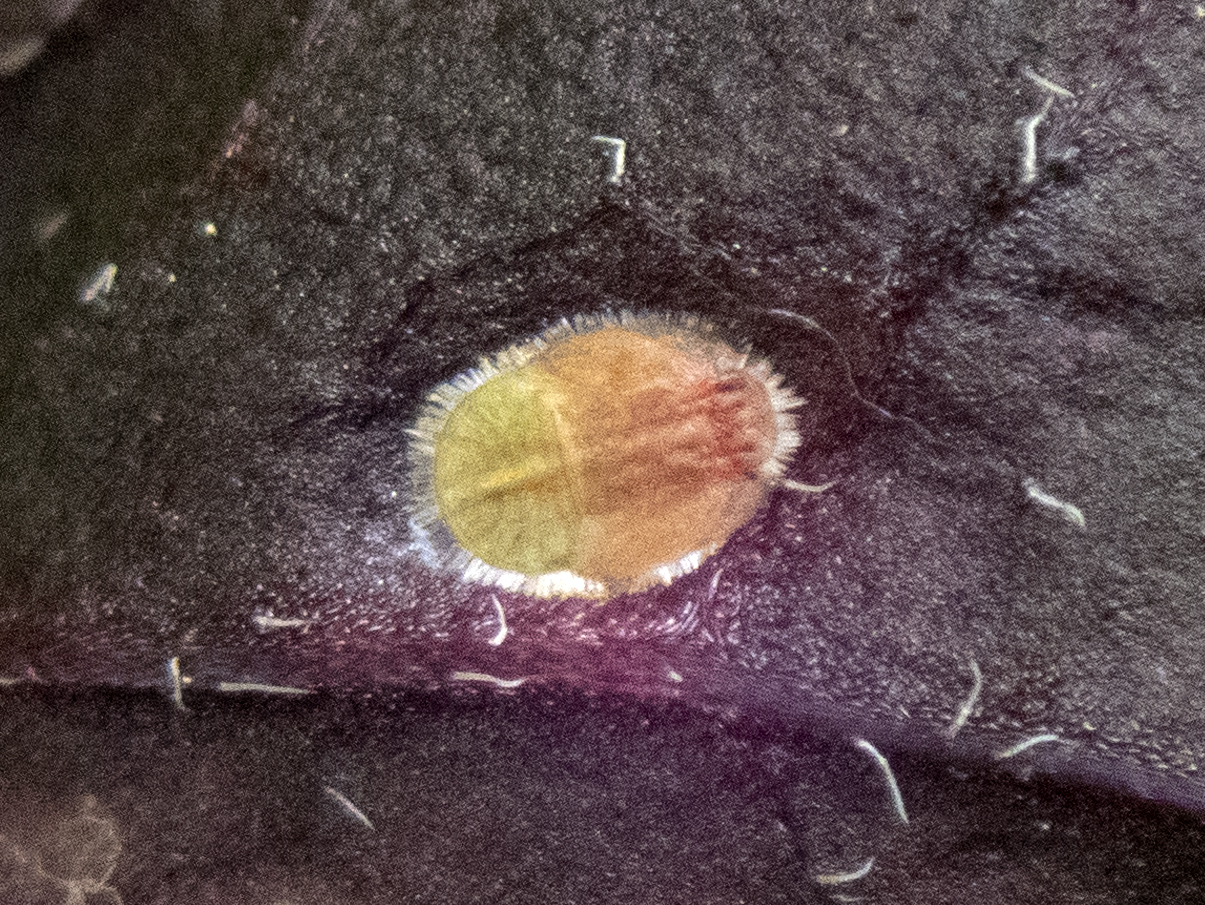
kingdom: Animalia
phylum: Arthropoda
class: Insecta
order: Hemiptera
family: Triozidae
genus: Bactericera
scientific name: Bactericera antennata
